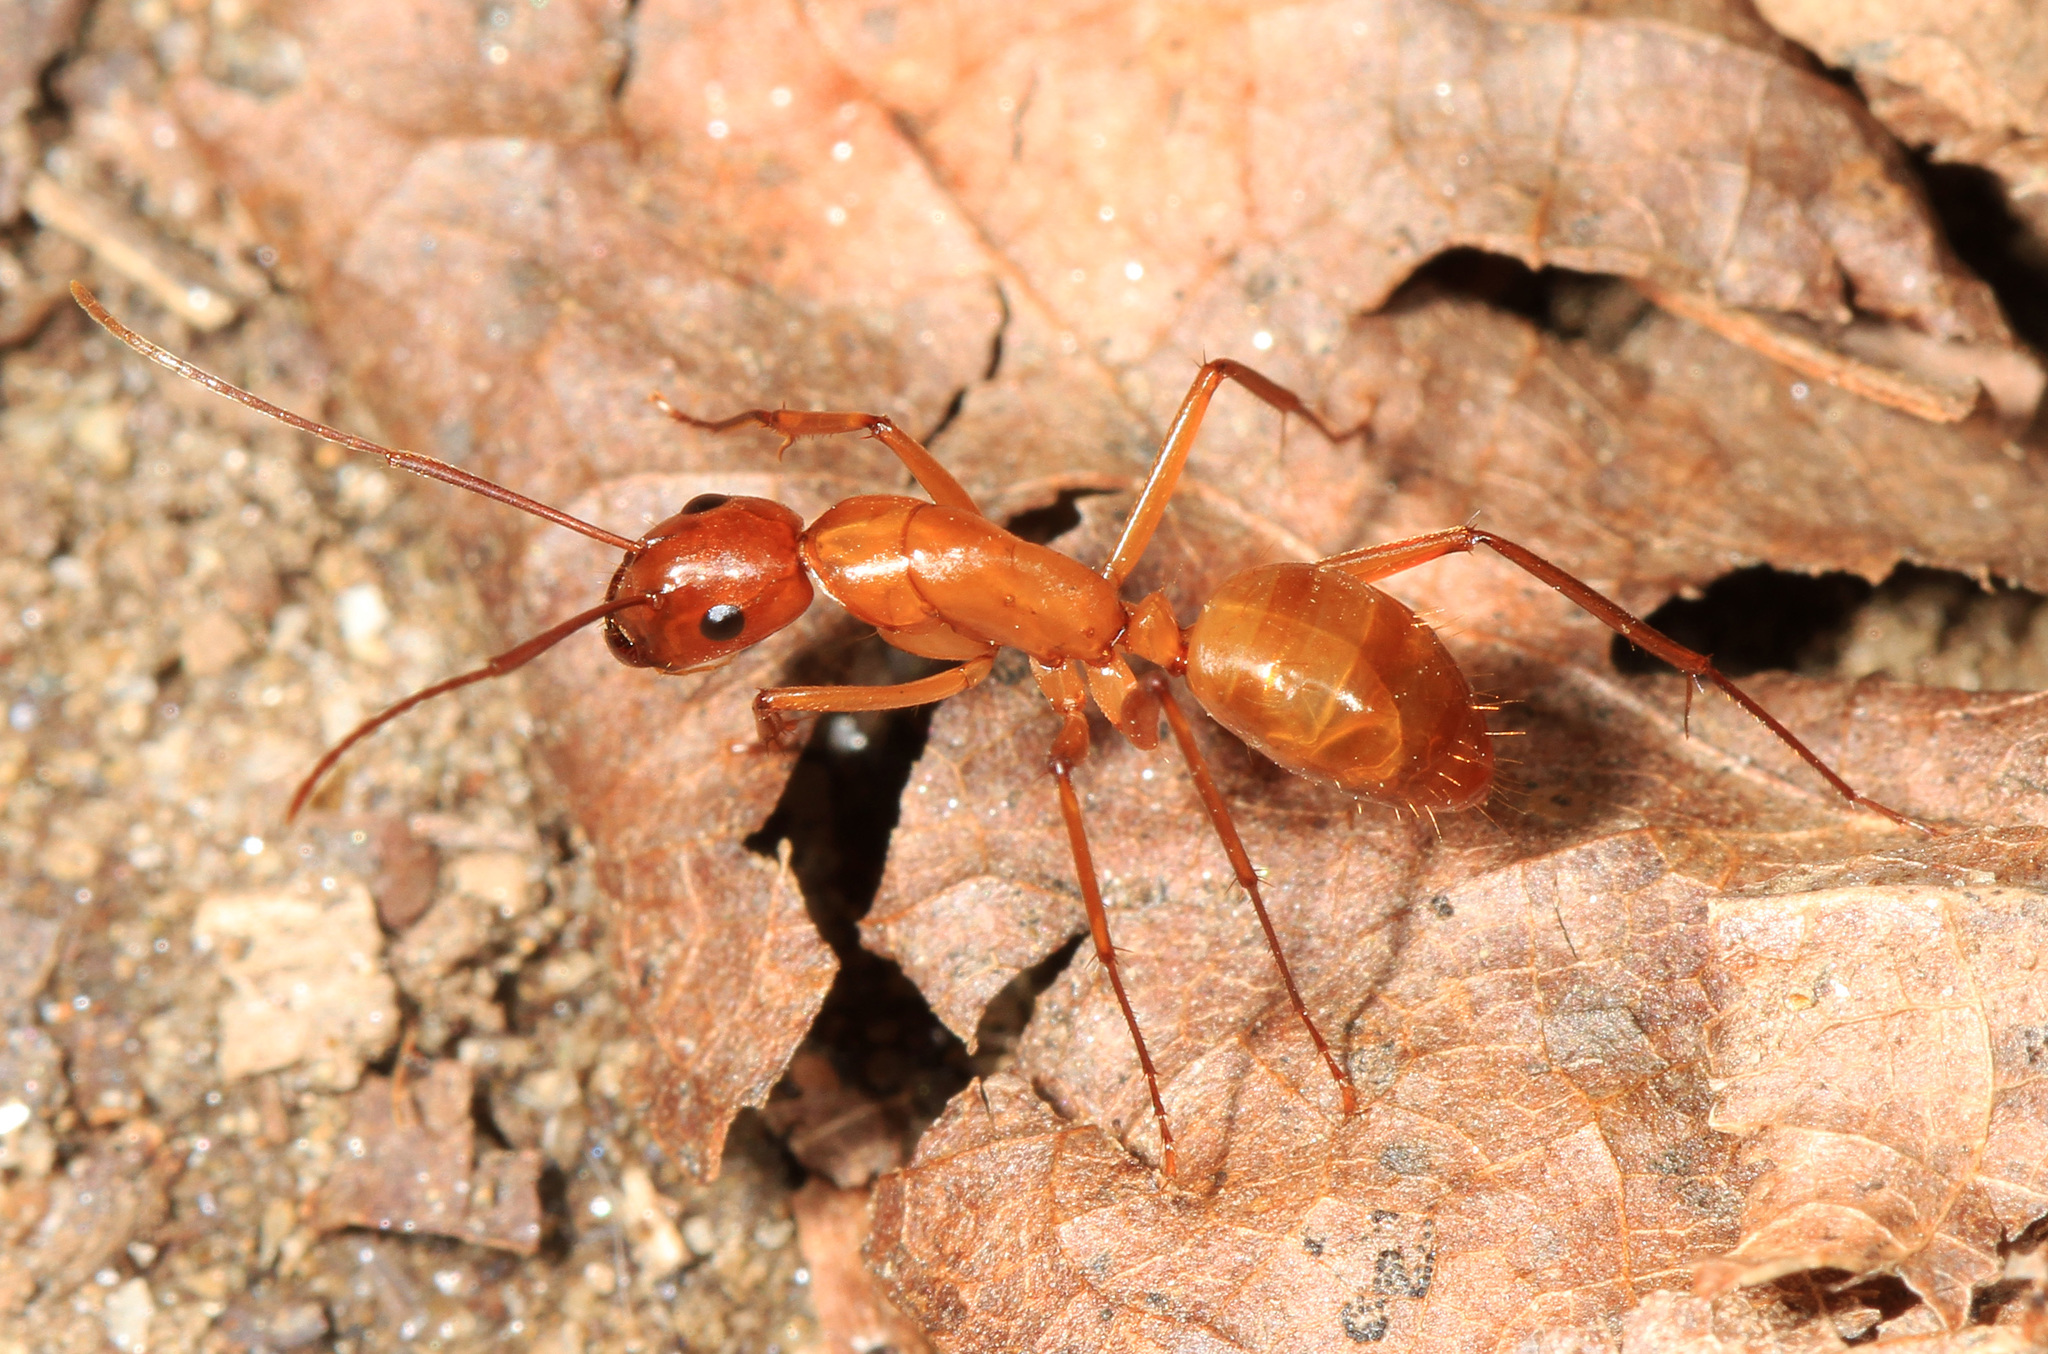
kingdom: Animalia
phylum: Arthropoda
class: Insecta
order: Hymenoptera
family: Formicidae
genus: Camponotus
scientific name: Camponotus castaneus
